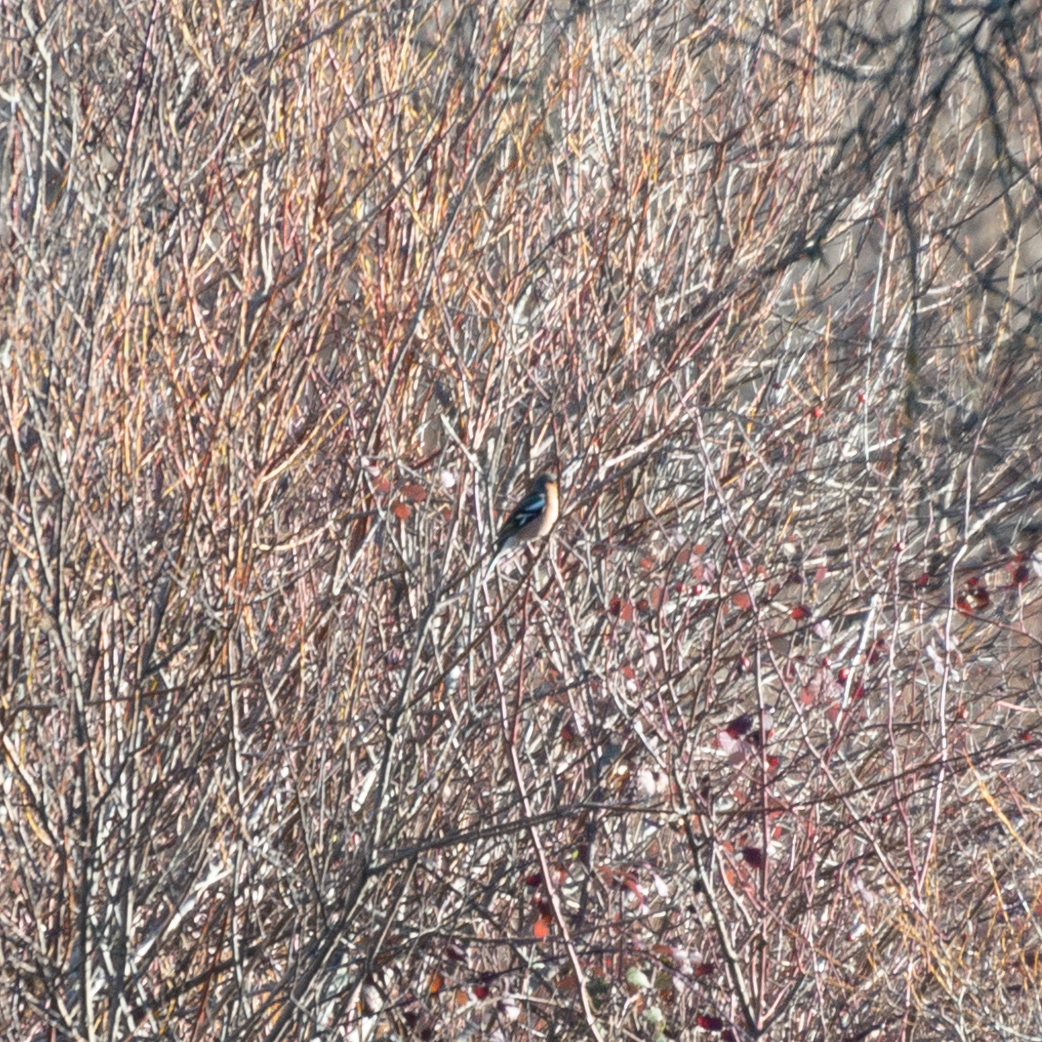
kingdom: Animalia
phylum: Chordata
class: Aves
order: Passeriformes
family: Fringillidae
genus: Fringilla
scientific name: Fringilla coelebs
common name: Common chaffinch
